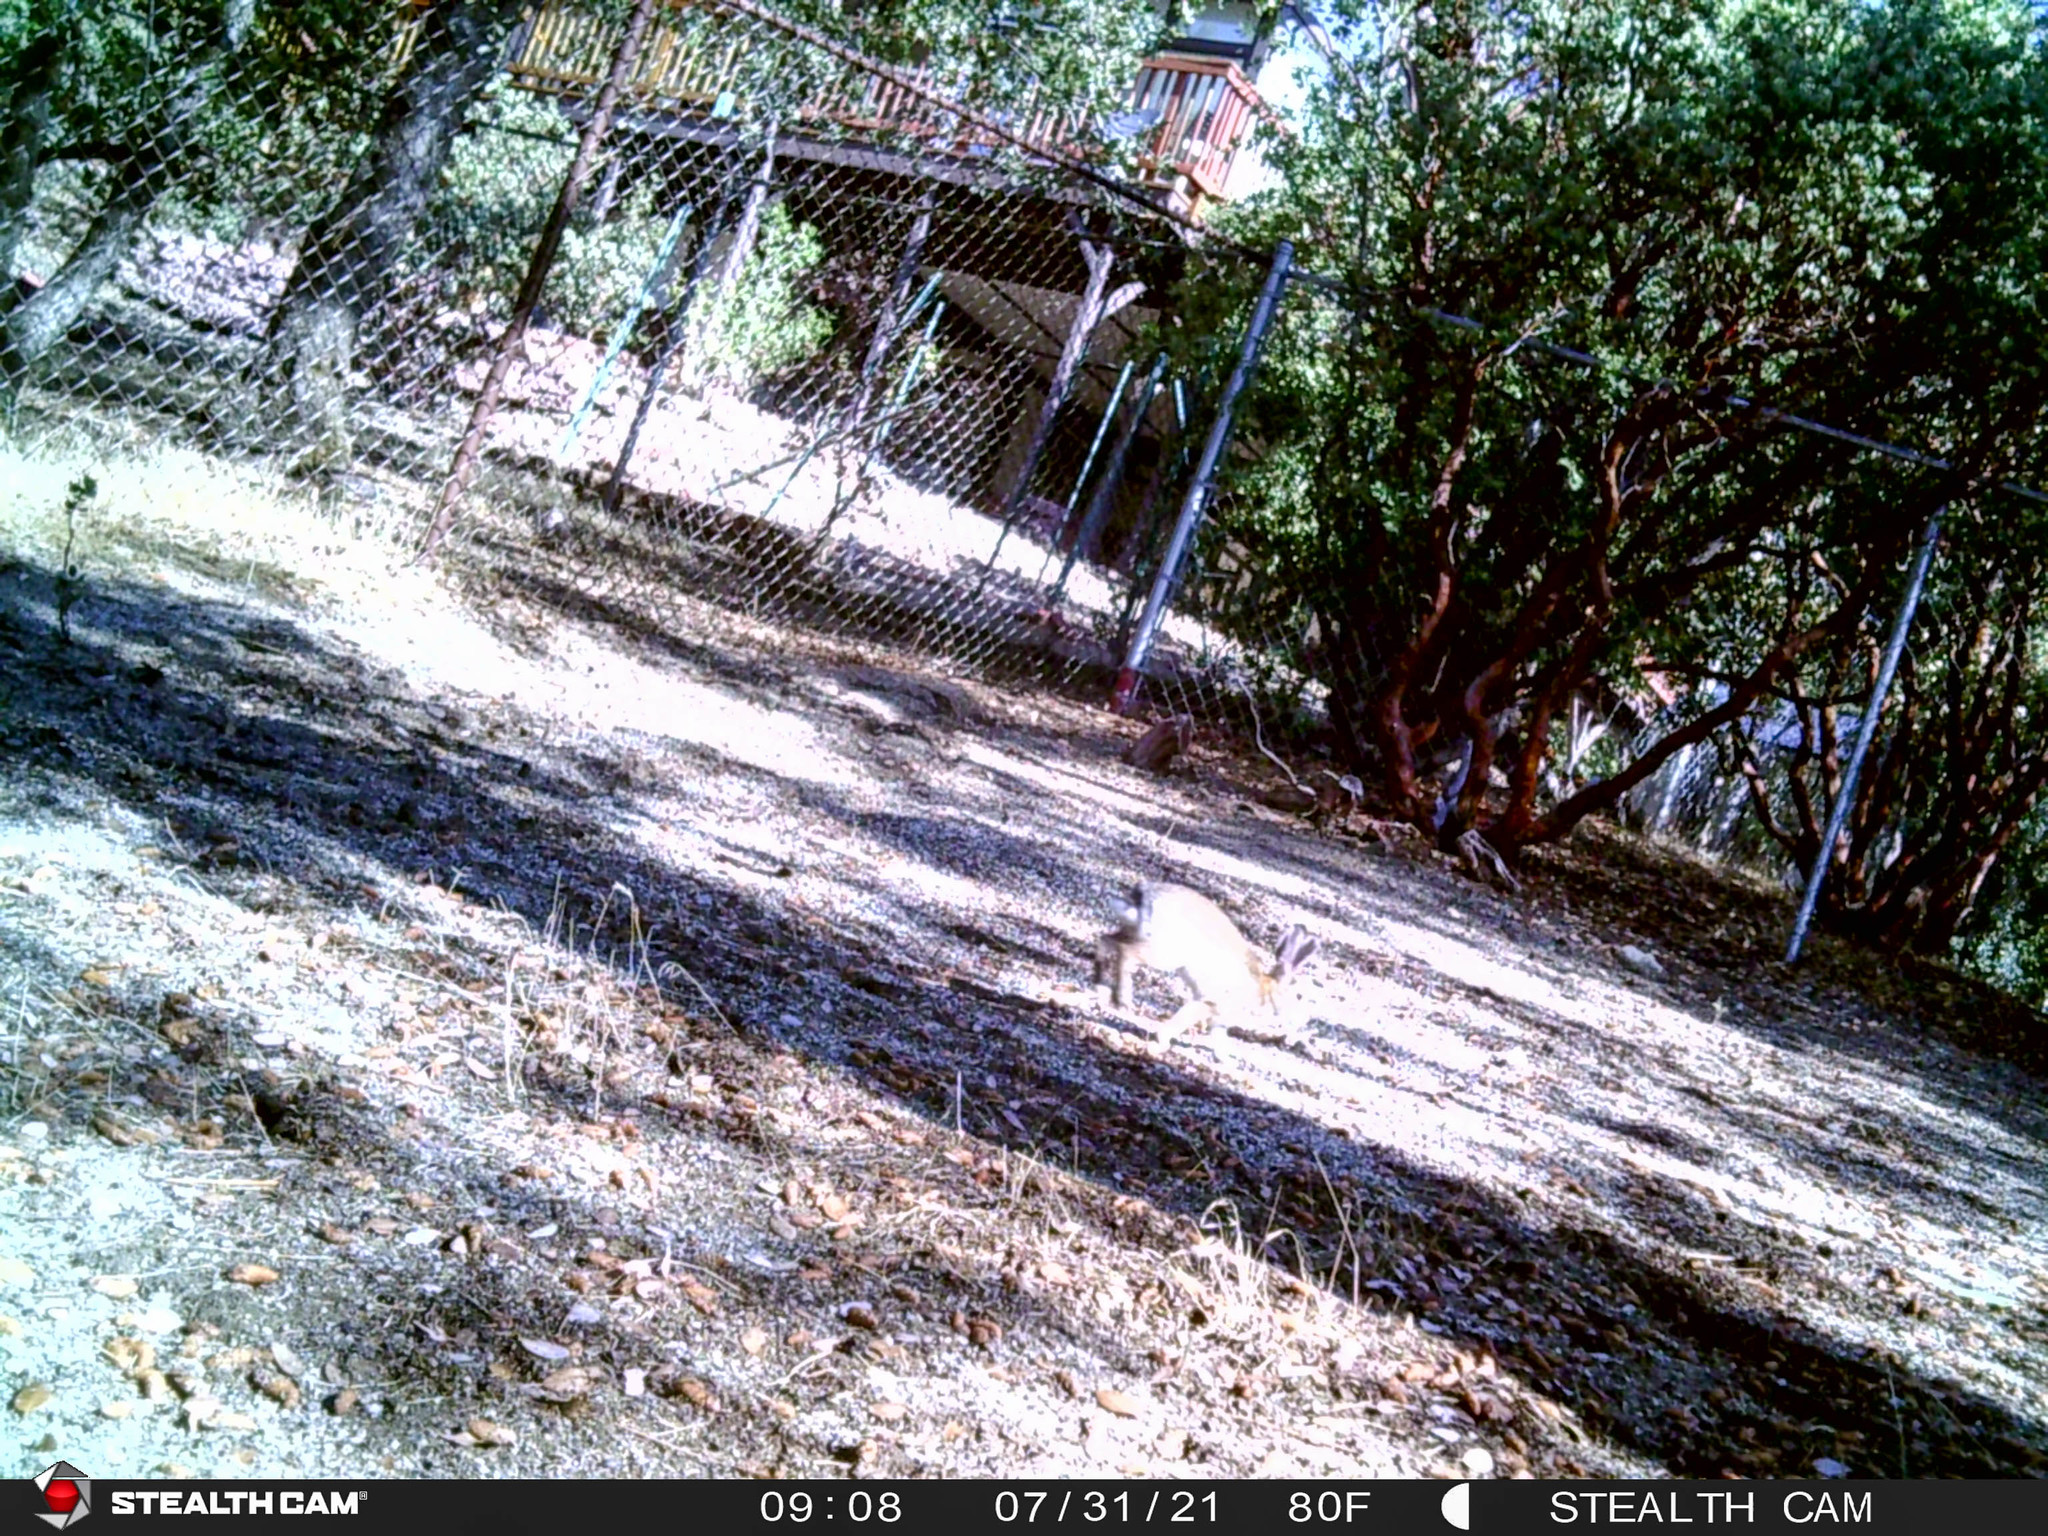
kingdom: Animalia
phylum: Chordata
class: Mammalia
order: Lagomorpha
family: Leporidae
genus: Sylvilagus
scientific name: Sylvilagus audubonii
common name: Desert cottontail
